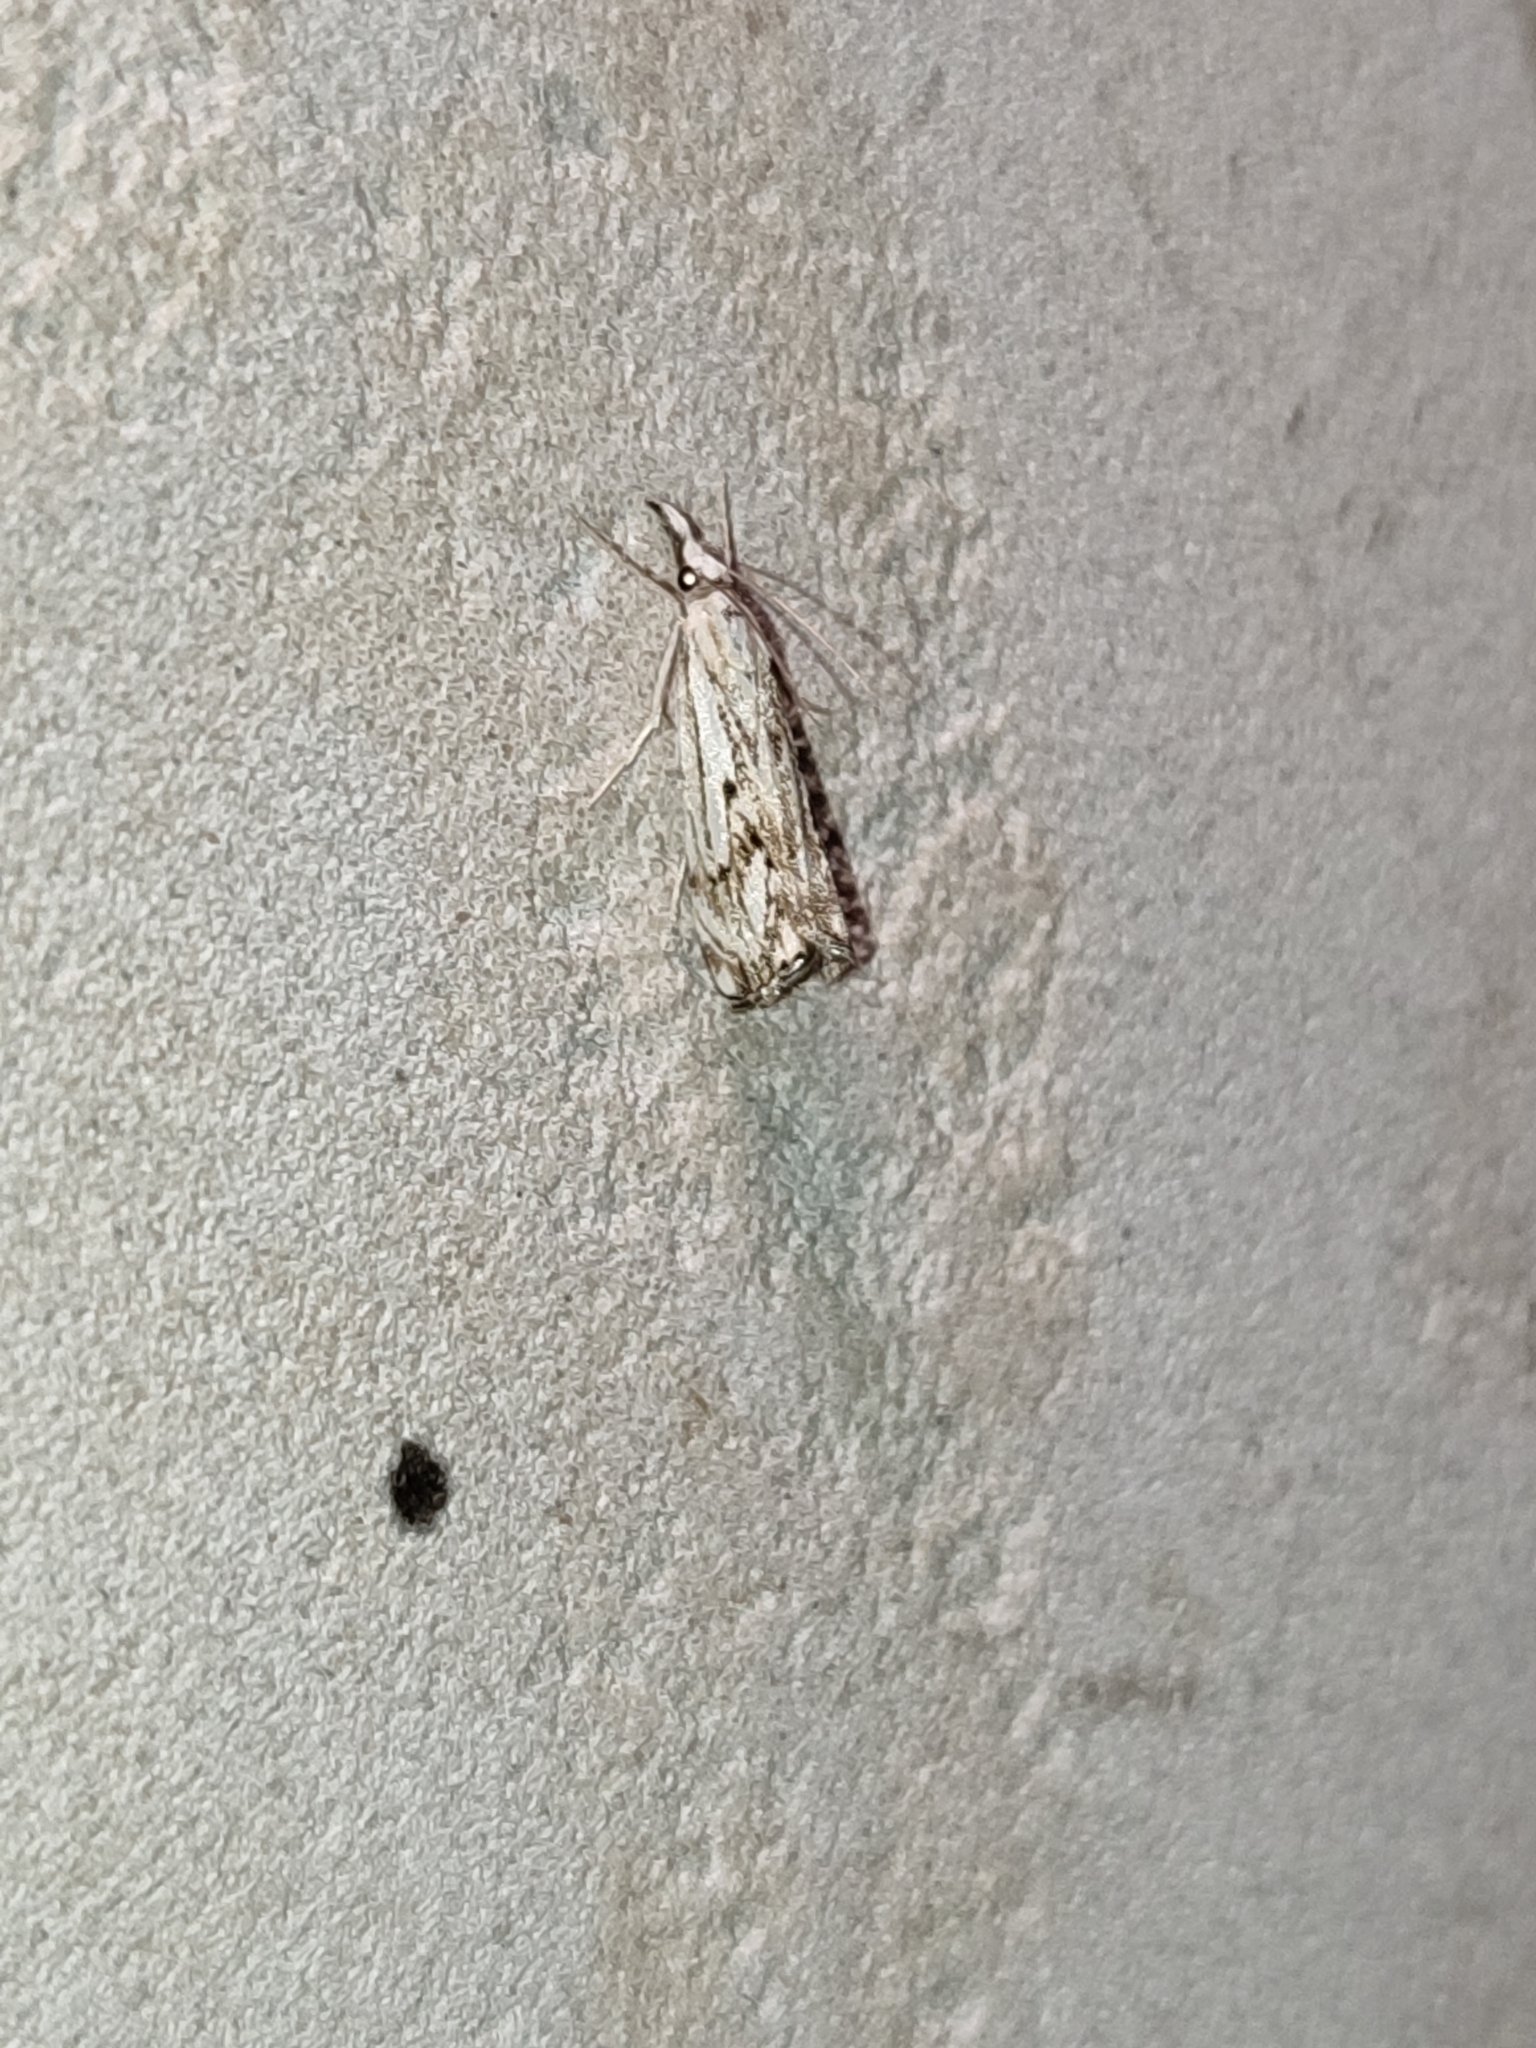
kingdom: Animalia
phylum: Arthropoda
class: Insecta
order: Lepidoptera
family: Crambidae
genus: Catoptria
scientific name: Catoptria falsella
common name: Chequered grass-veneer
